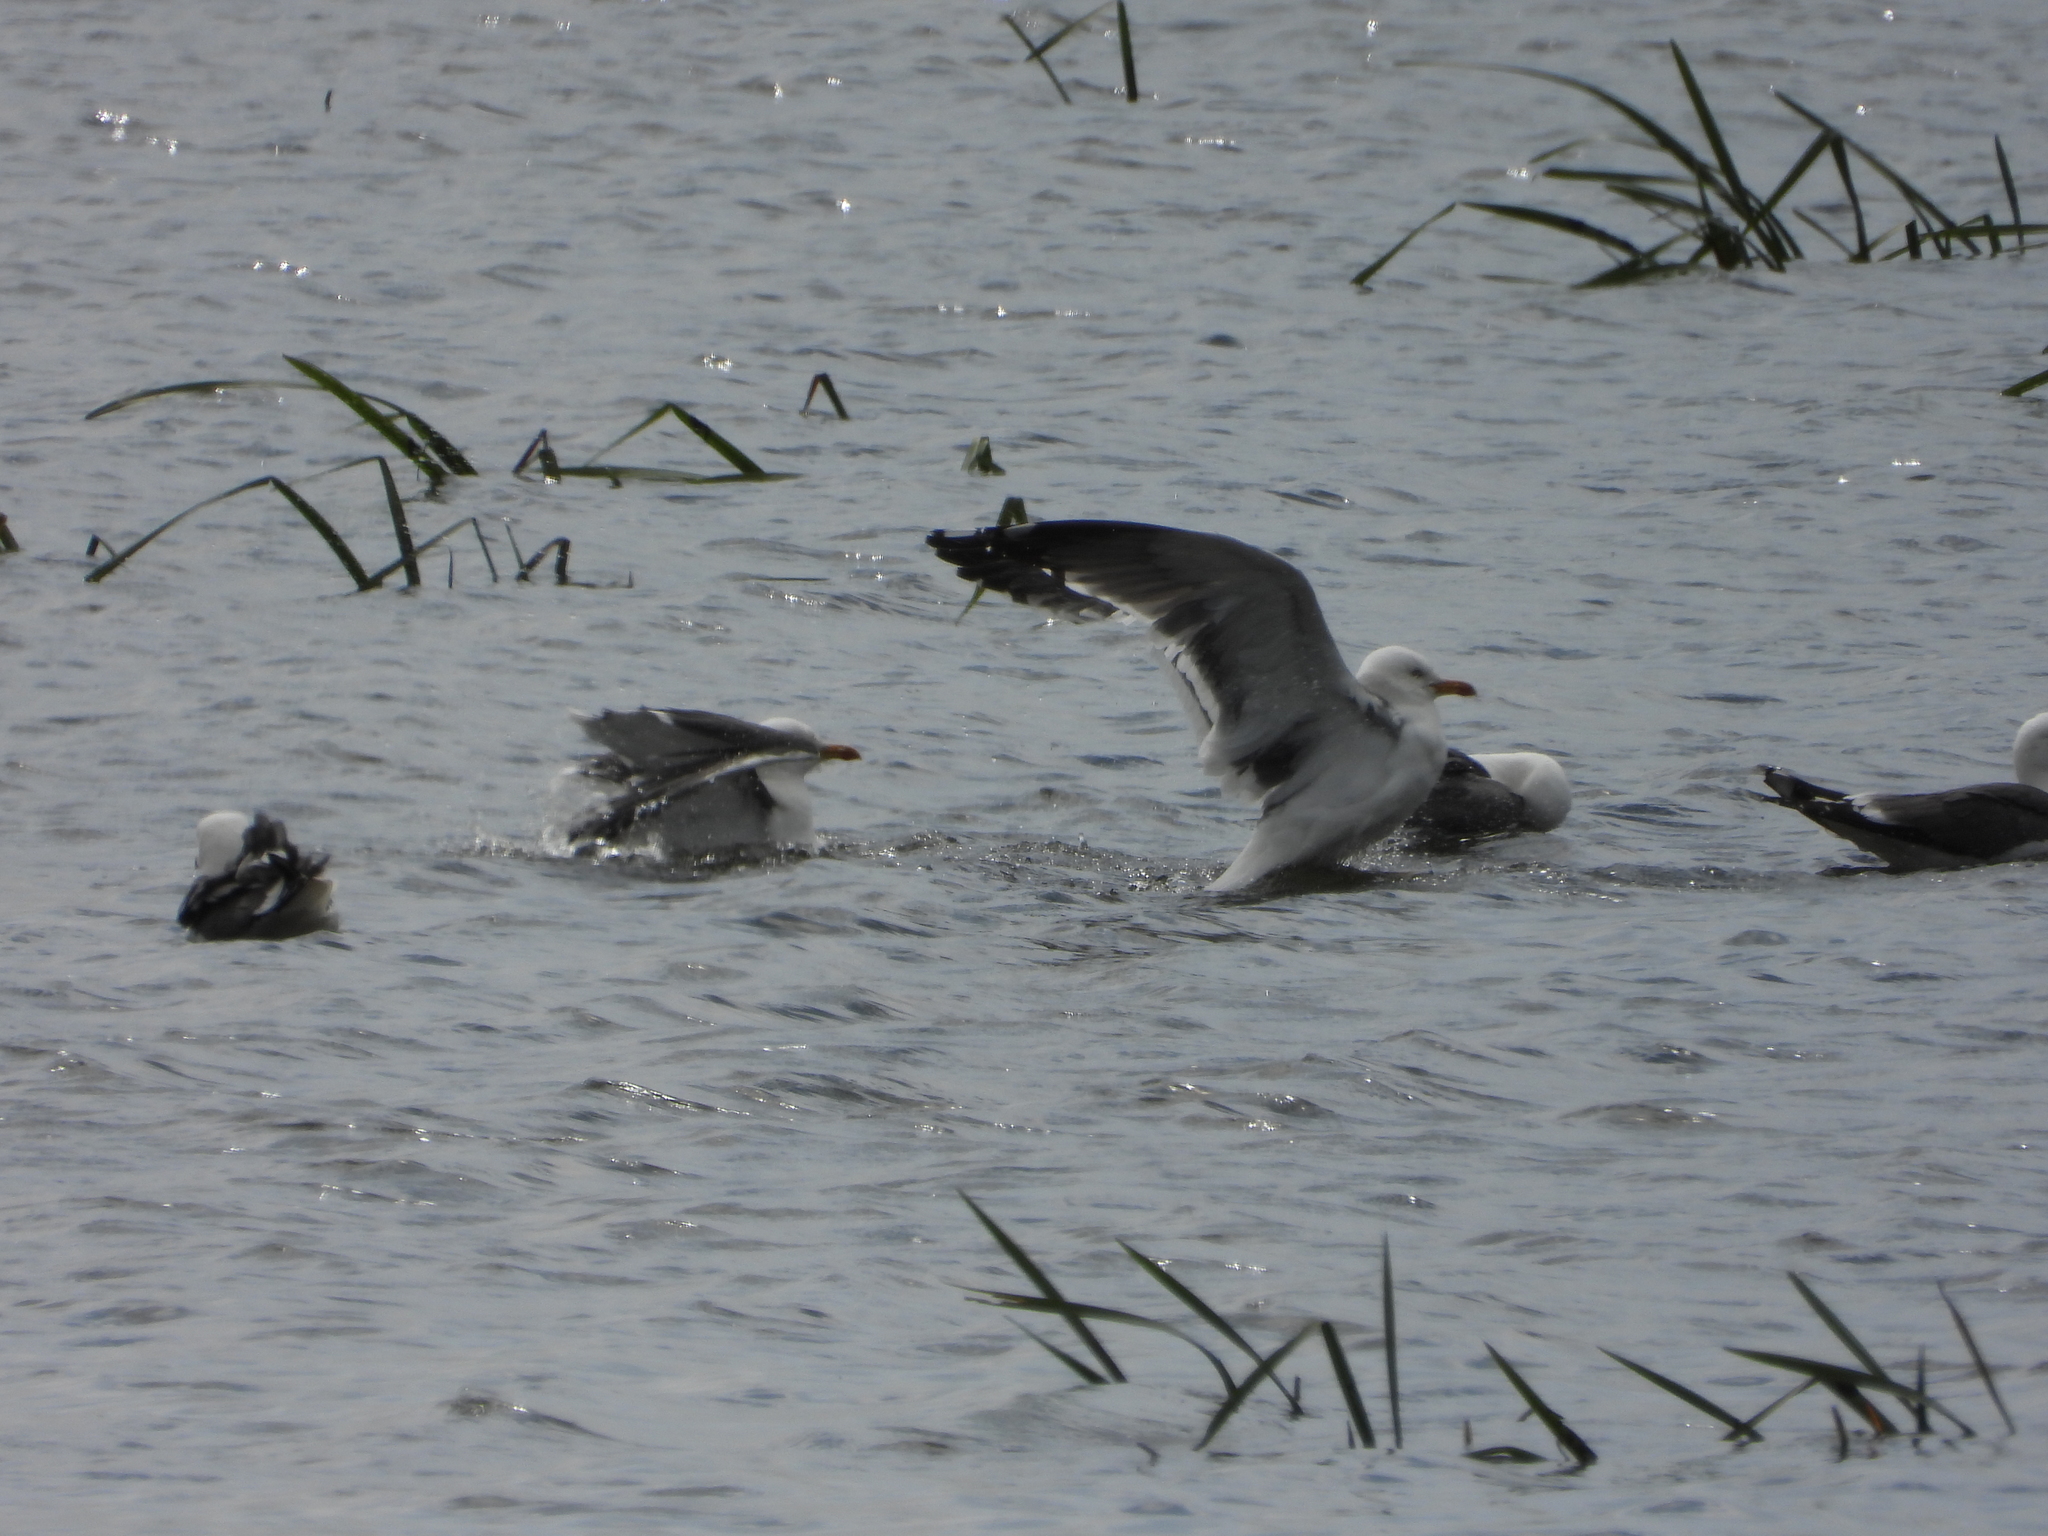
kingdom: Animalia
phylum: Chordata
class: Aves
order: Charadriiformes
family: Laridae
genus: Larus
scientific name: Larus fuscus
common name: Lesser black-backed gull
